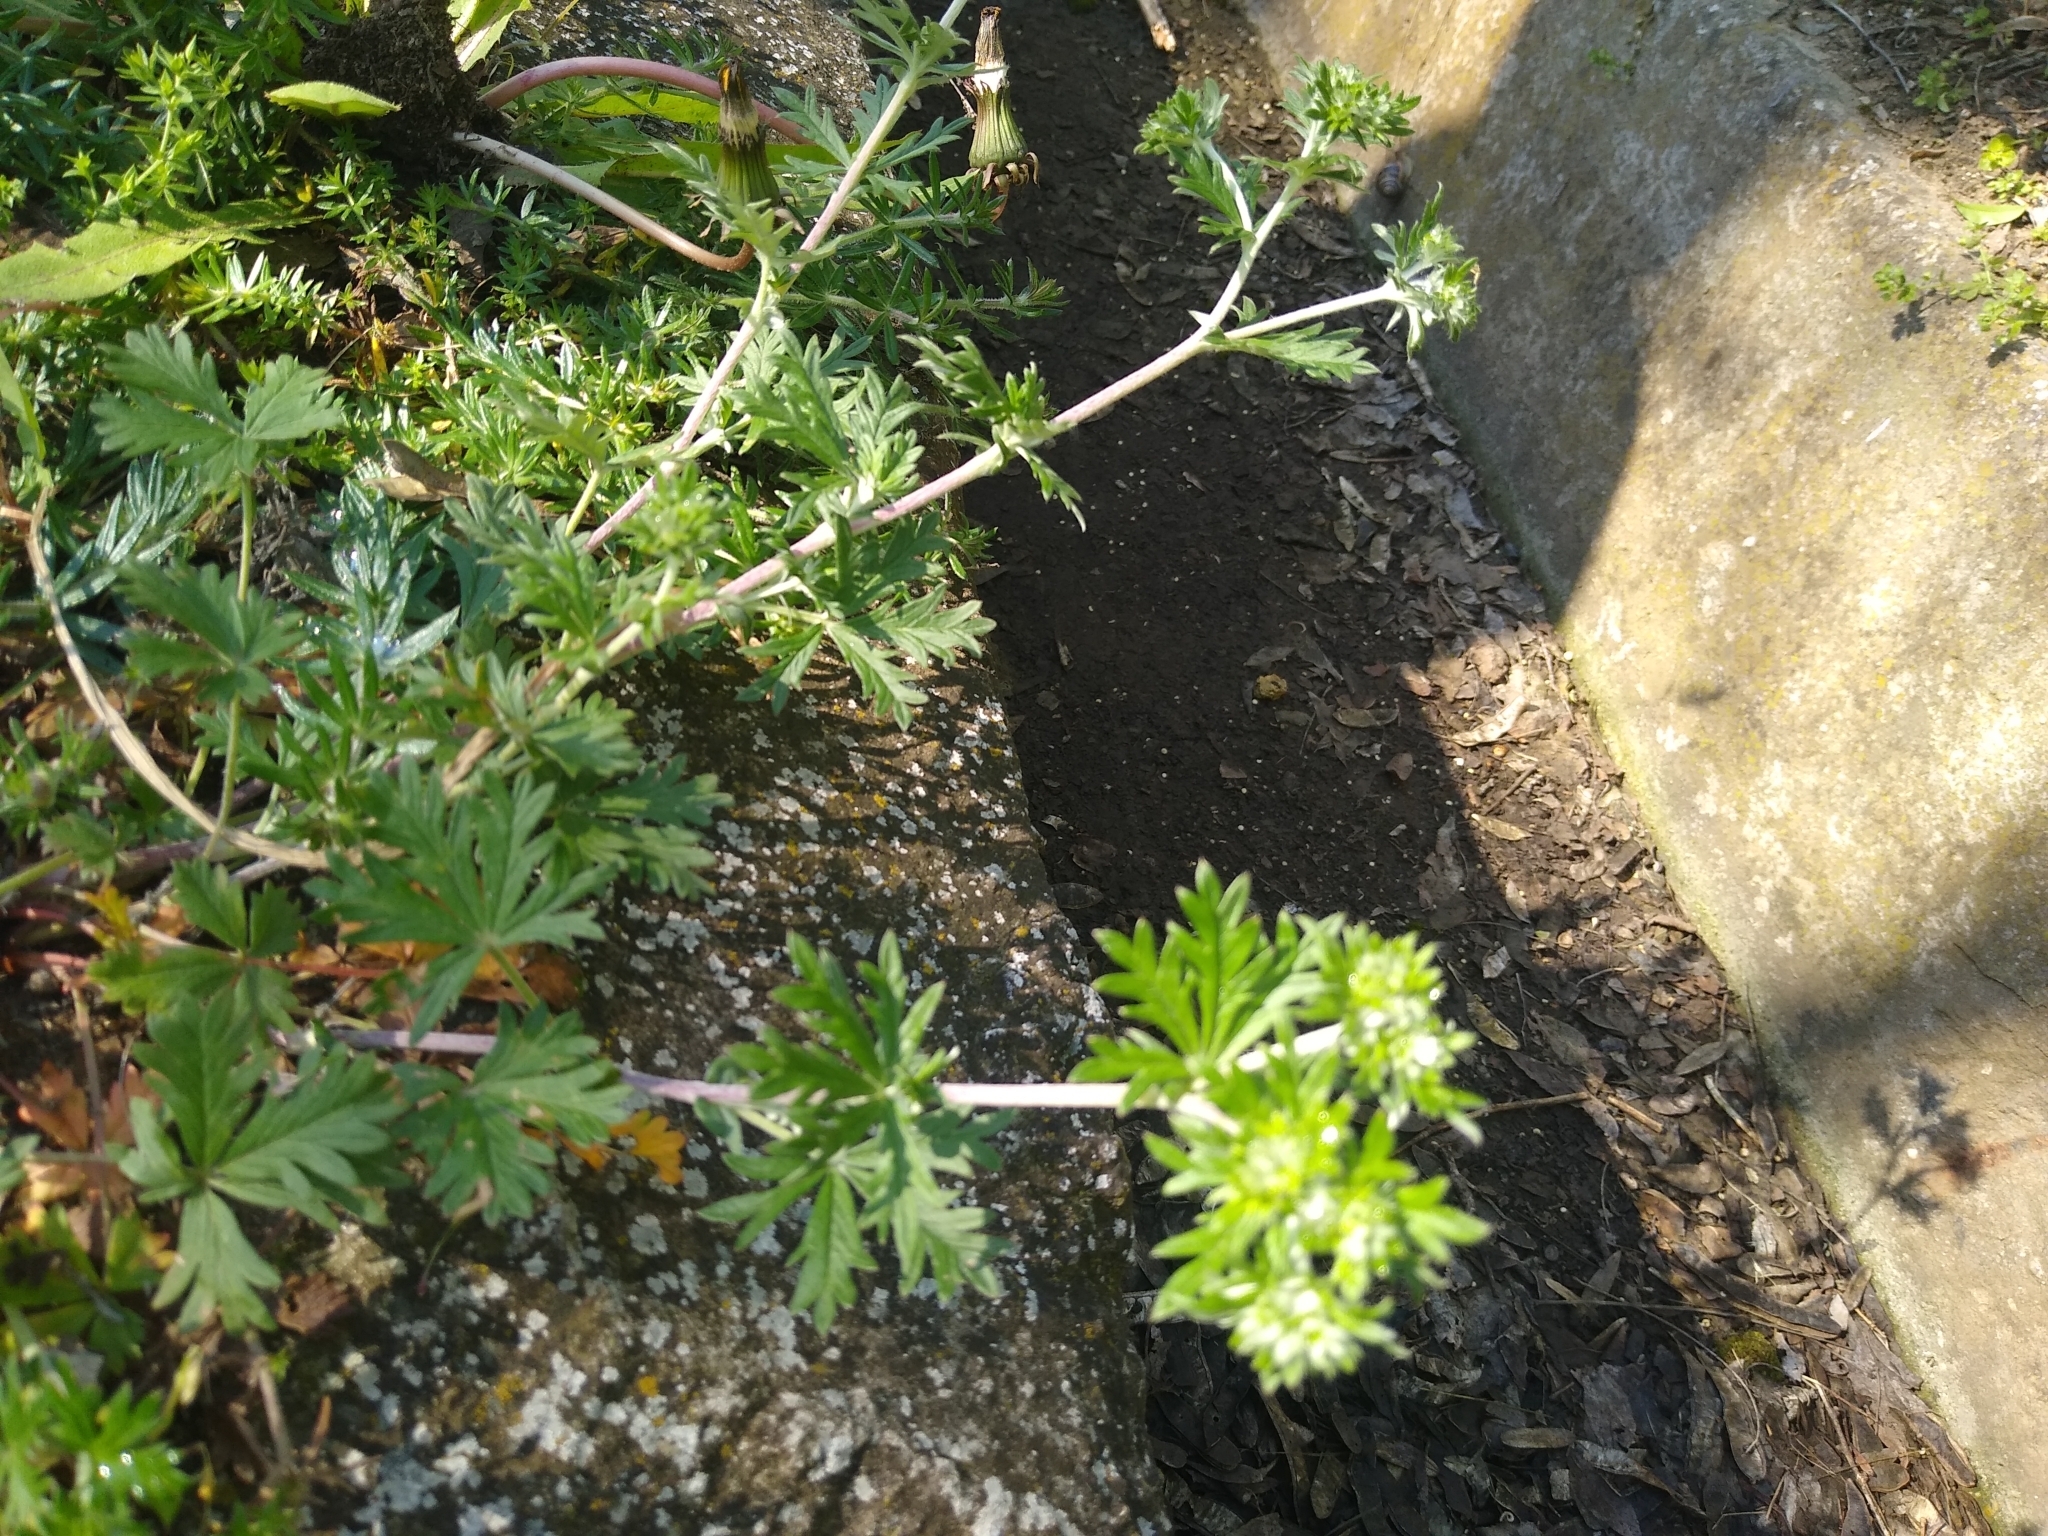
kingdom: Plantae
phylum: Tracheophyta
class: Magnoliopsida
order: Rosales
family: Rosaceae
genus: Potentilla
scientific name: Potentilla argentea
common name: Hoary cinquefoil
